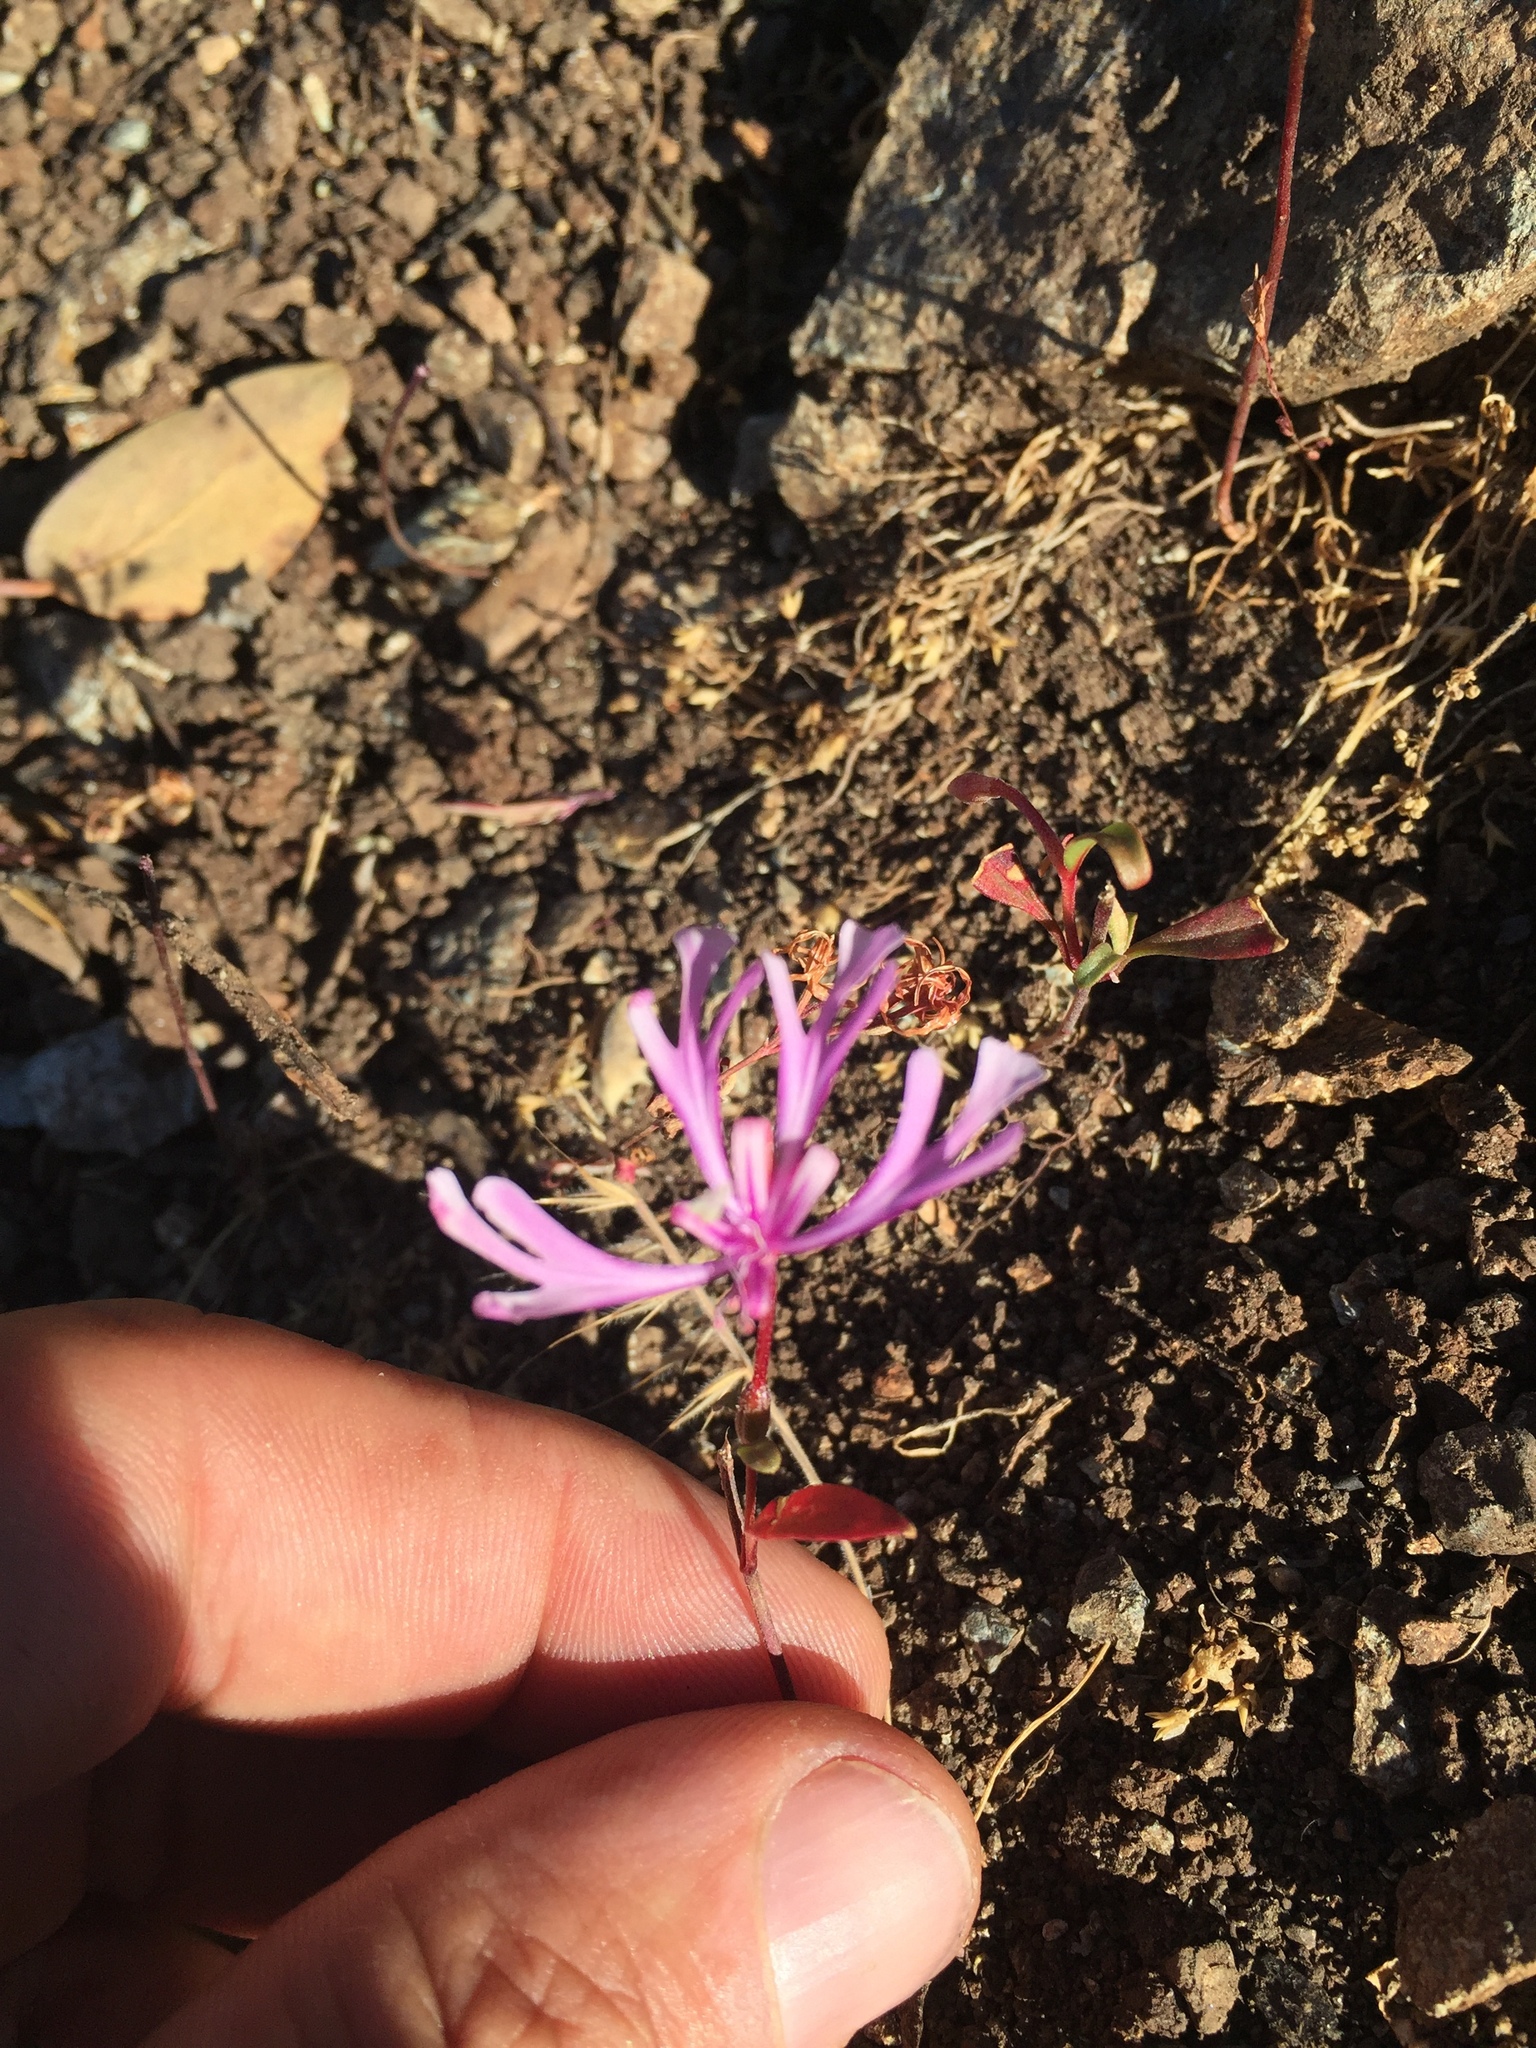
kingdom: Plantae
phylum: Tracheophyta
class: Magnoliopsida
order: Myrtales
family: Onagraceae
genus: Clarkia
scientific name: Clarkia concinna
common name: Red-ribbons
